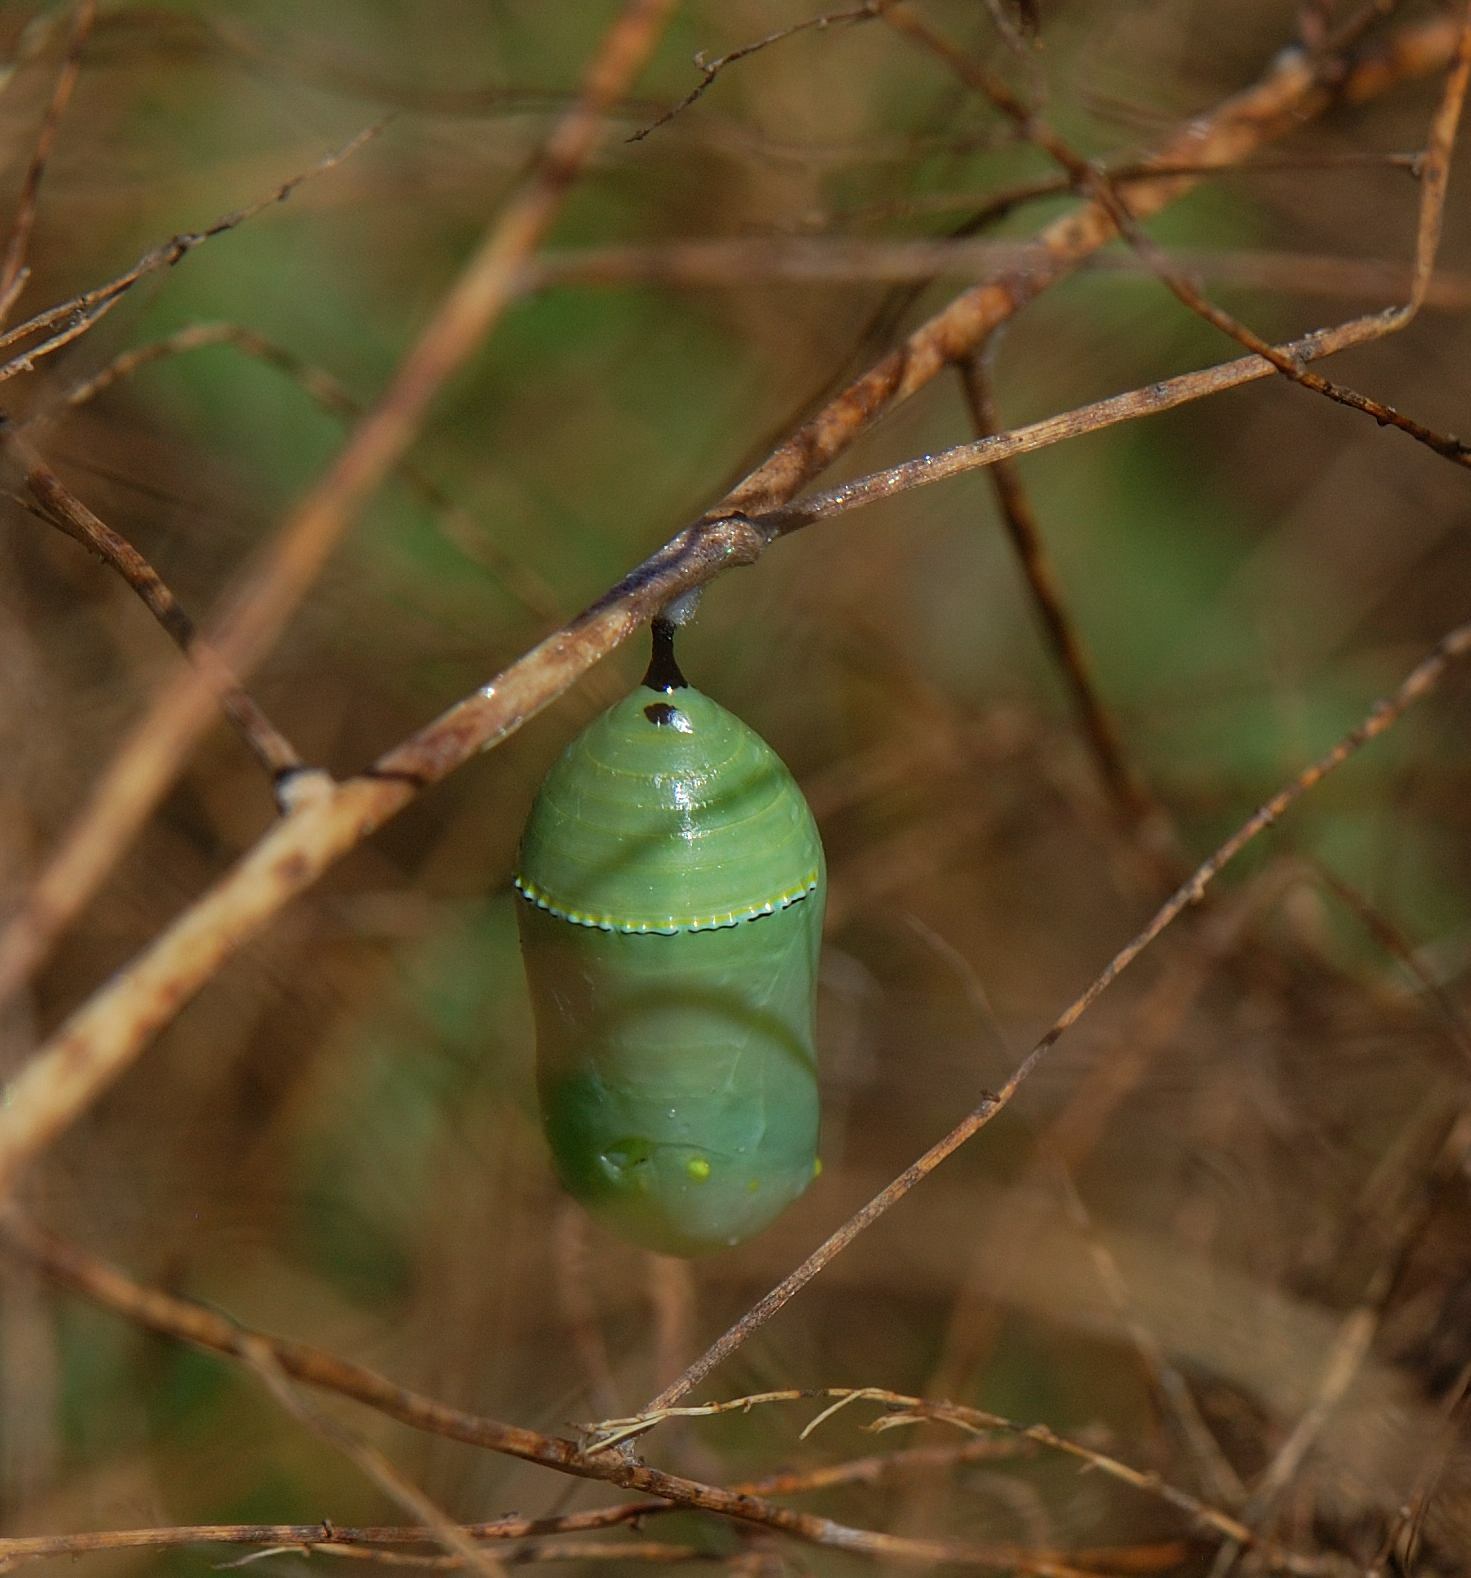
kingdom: Animalia
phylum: Arthropoda
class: Insecta
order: Lepidoptera
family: Nymphalidae
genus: Danaus
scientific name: Danaus plexippus
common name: Monarch
